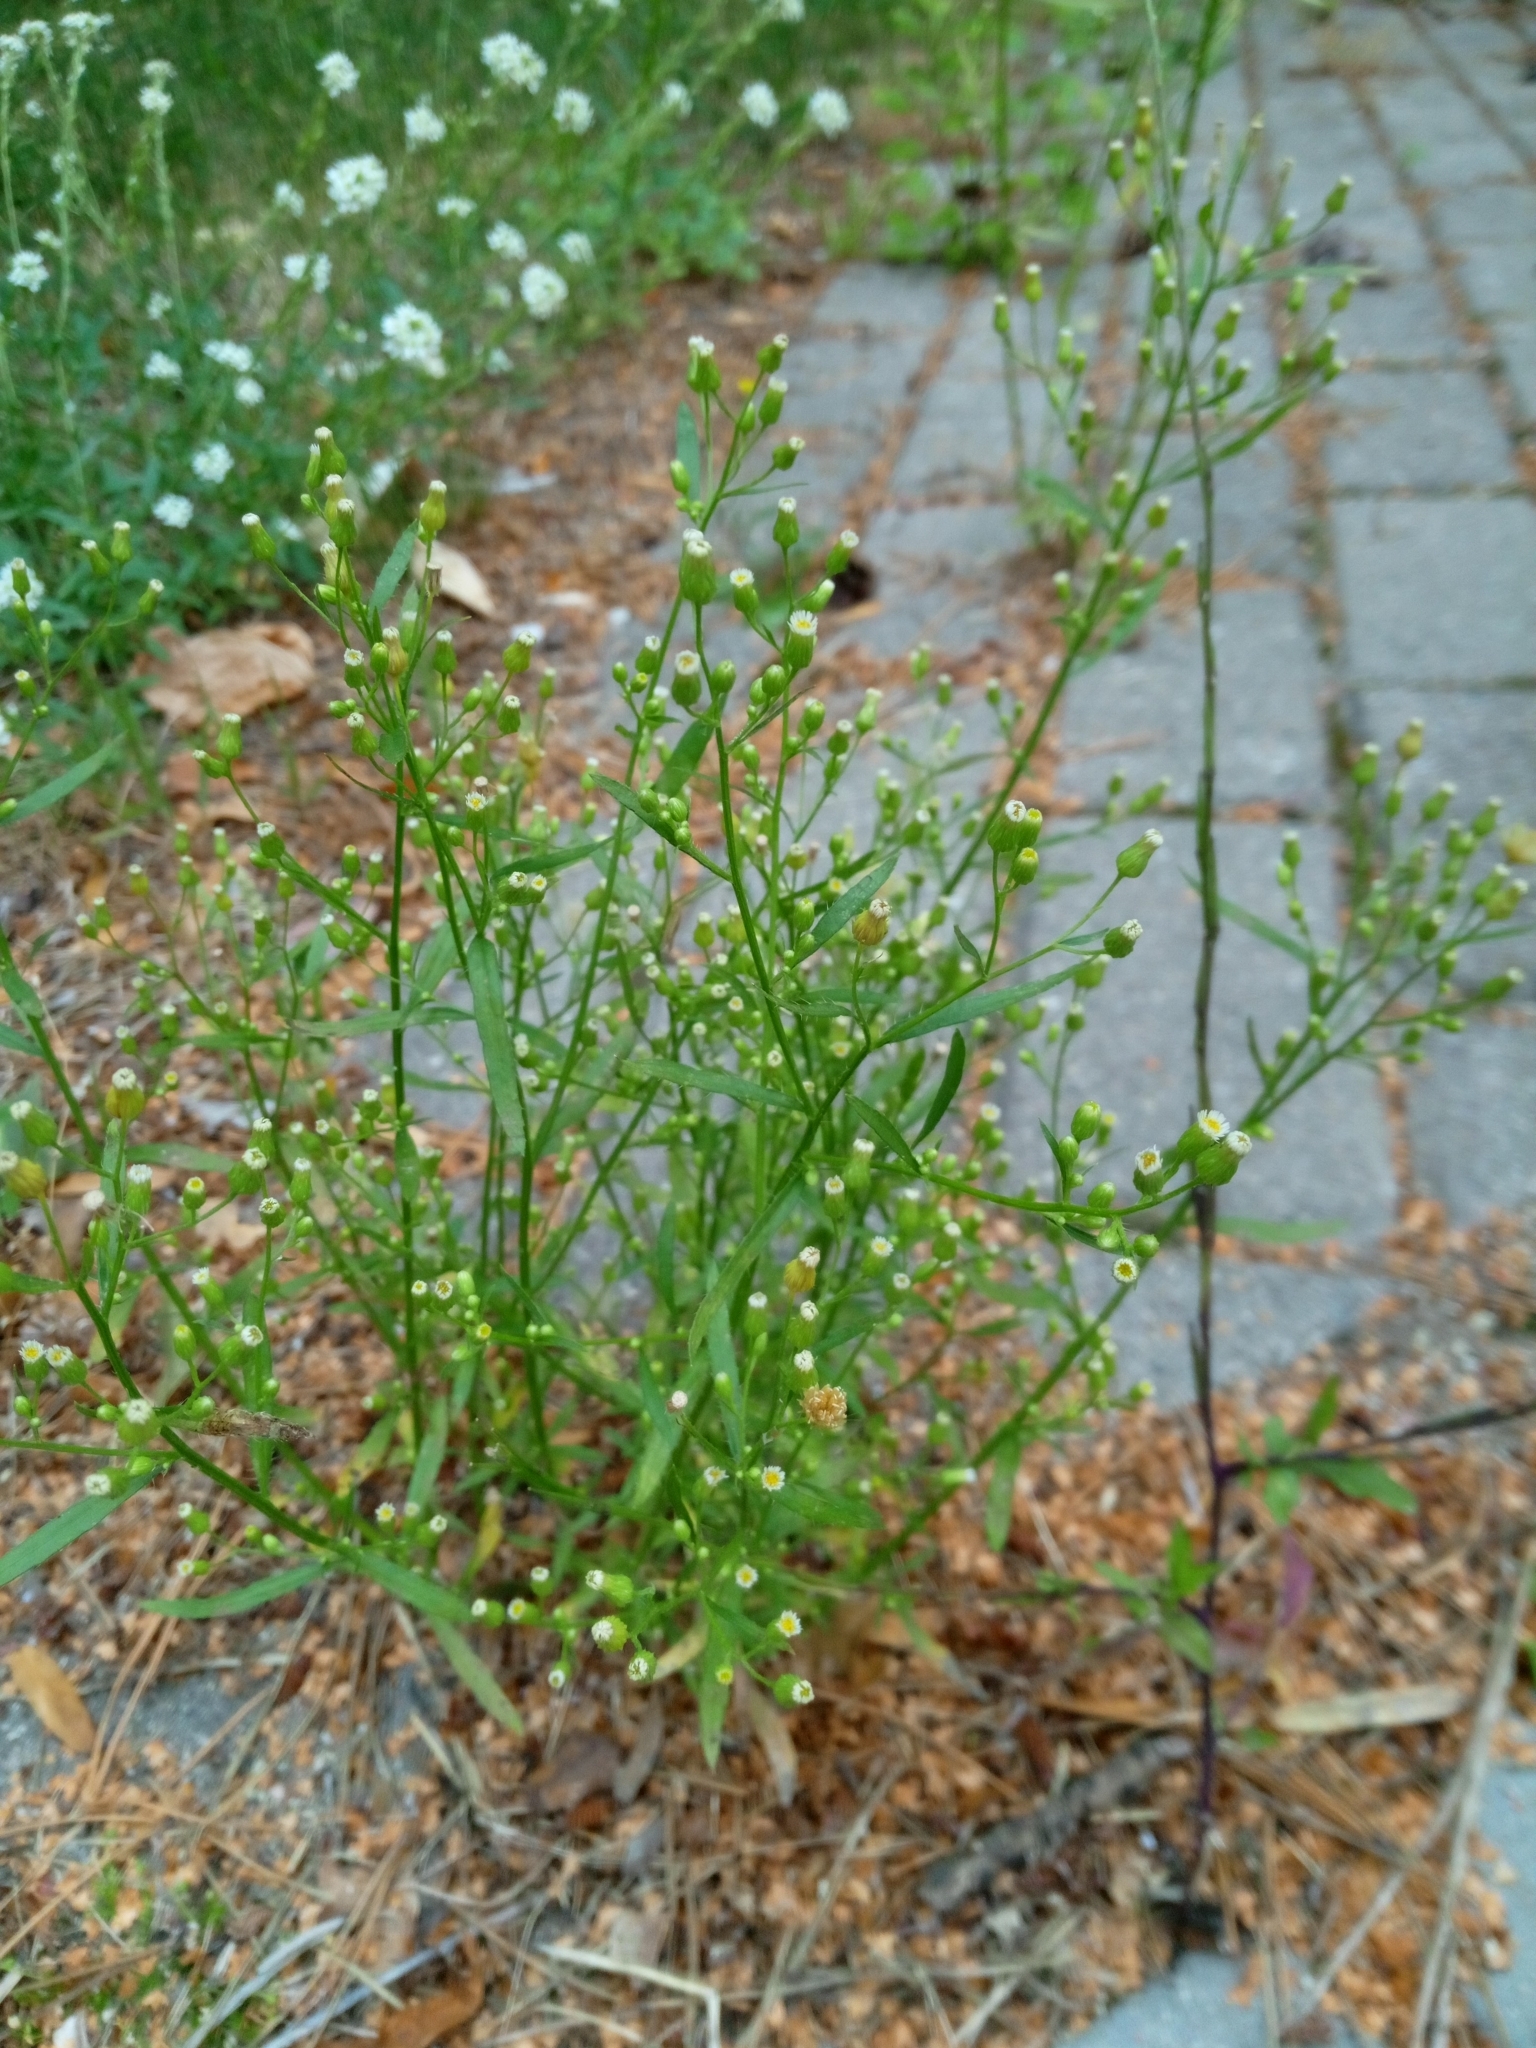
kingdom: Plantae
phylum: Tracheophyta
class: Magnoliopsida
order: Asterales
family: Asteraceae
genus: Erigeron
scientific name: Erigeron canadensis
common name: Canadian fleabane
